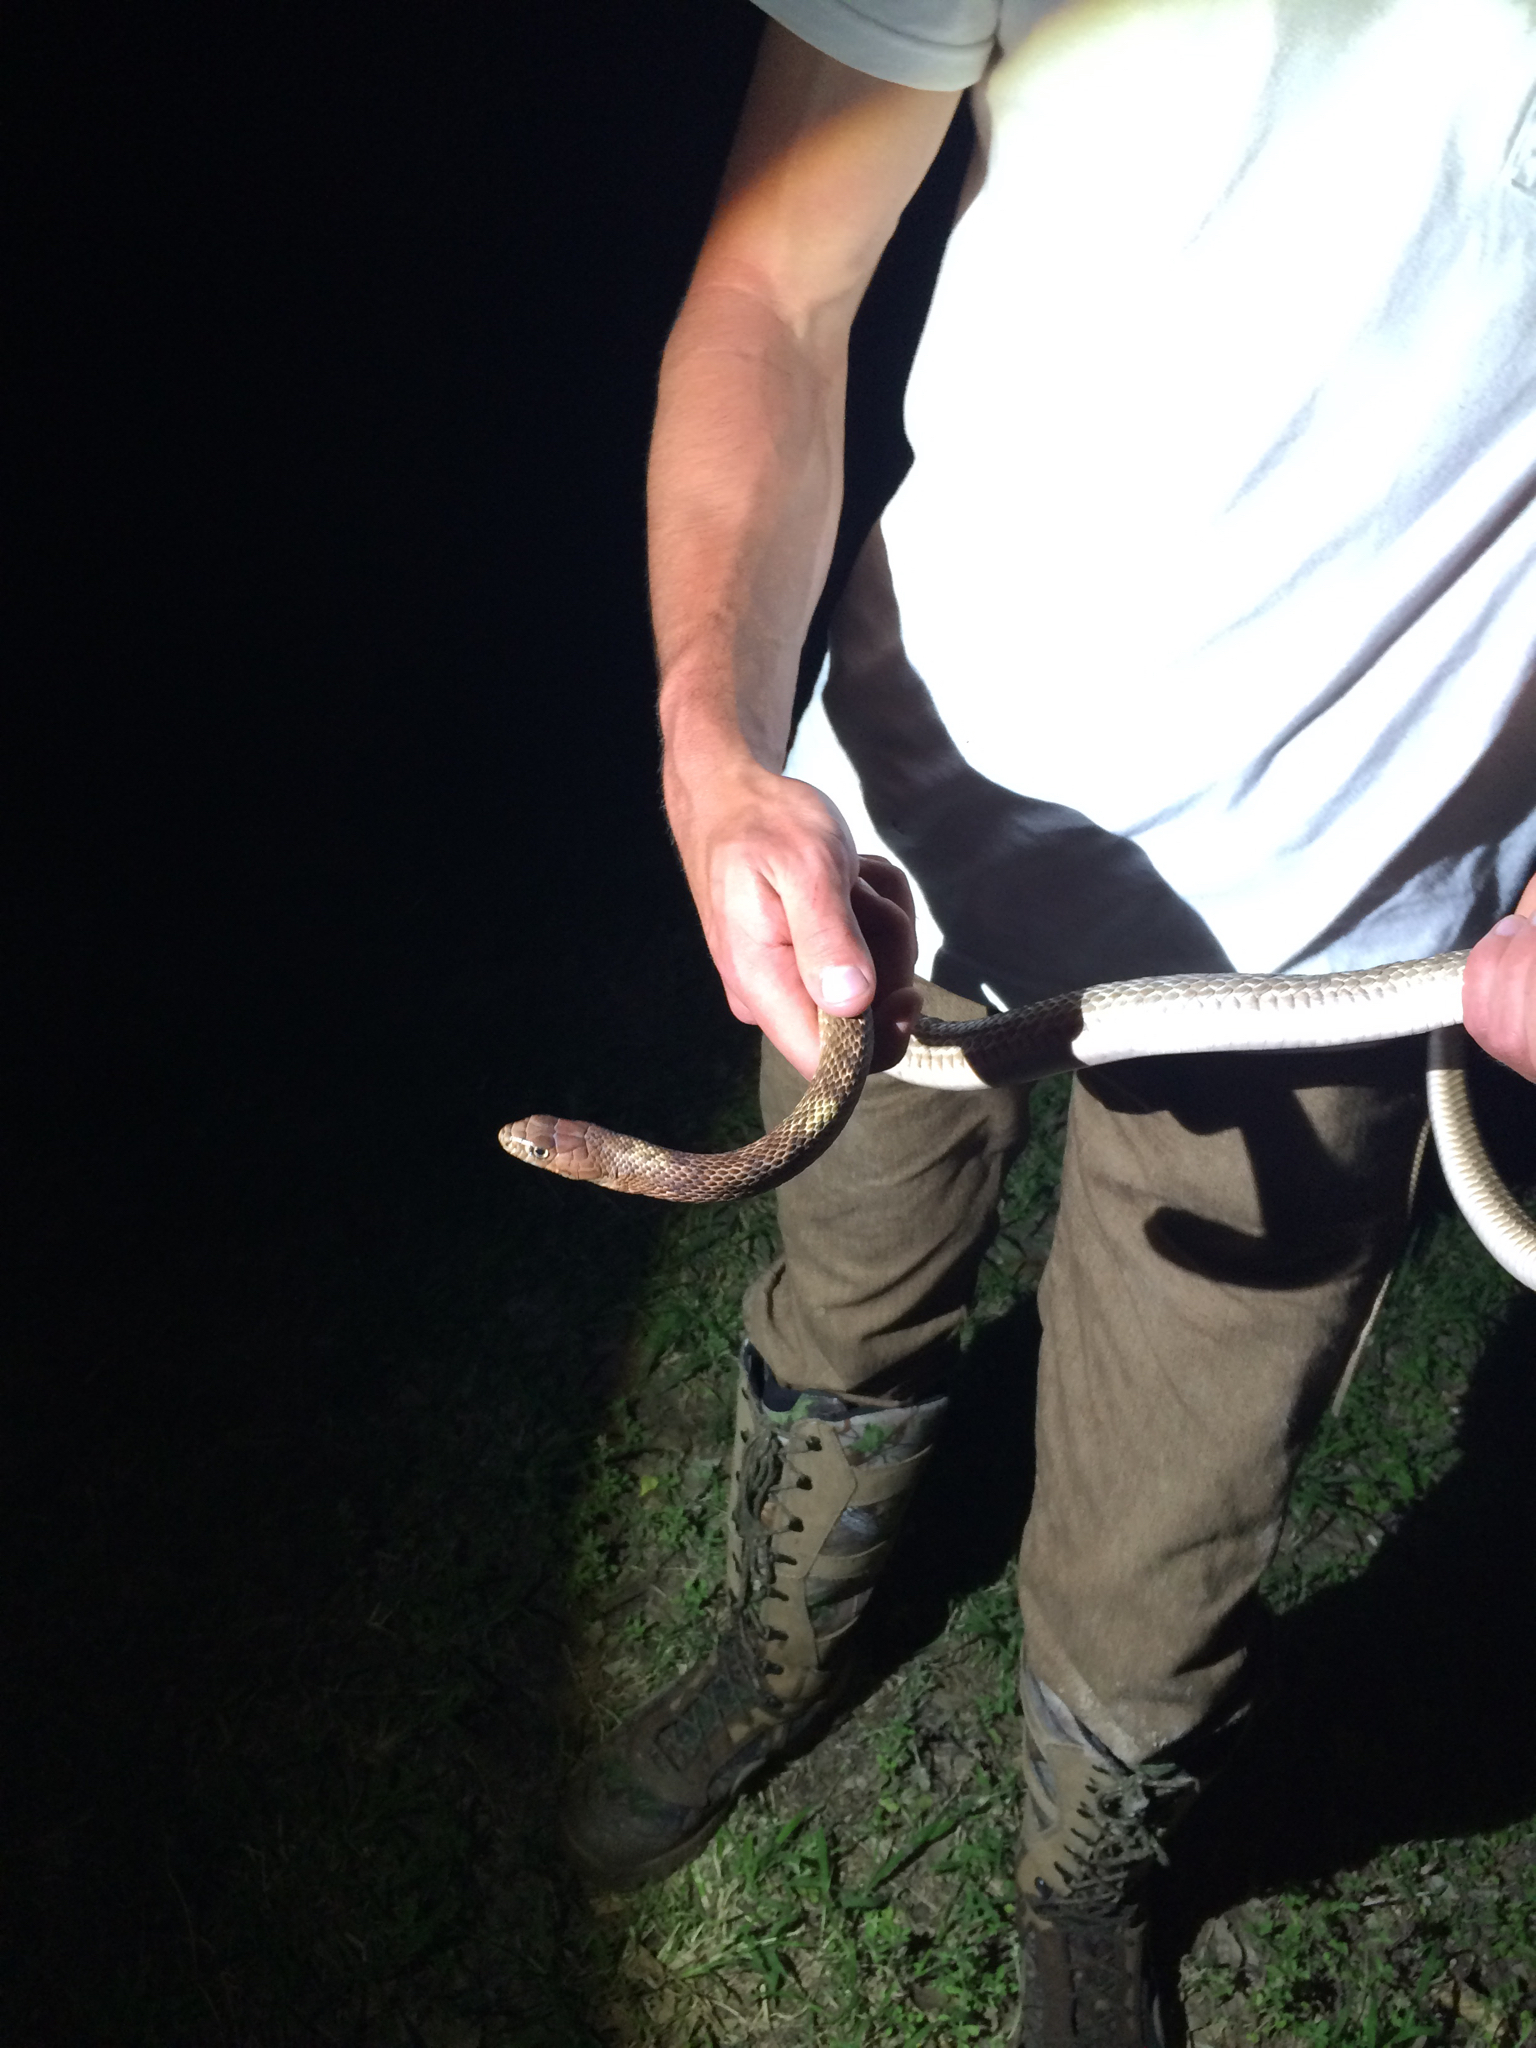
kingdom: Animalia
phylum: Chordata
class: Squamata
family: Colubridae
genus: Masticophis
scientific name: Masticophis flagellum
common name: Coachwhip
